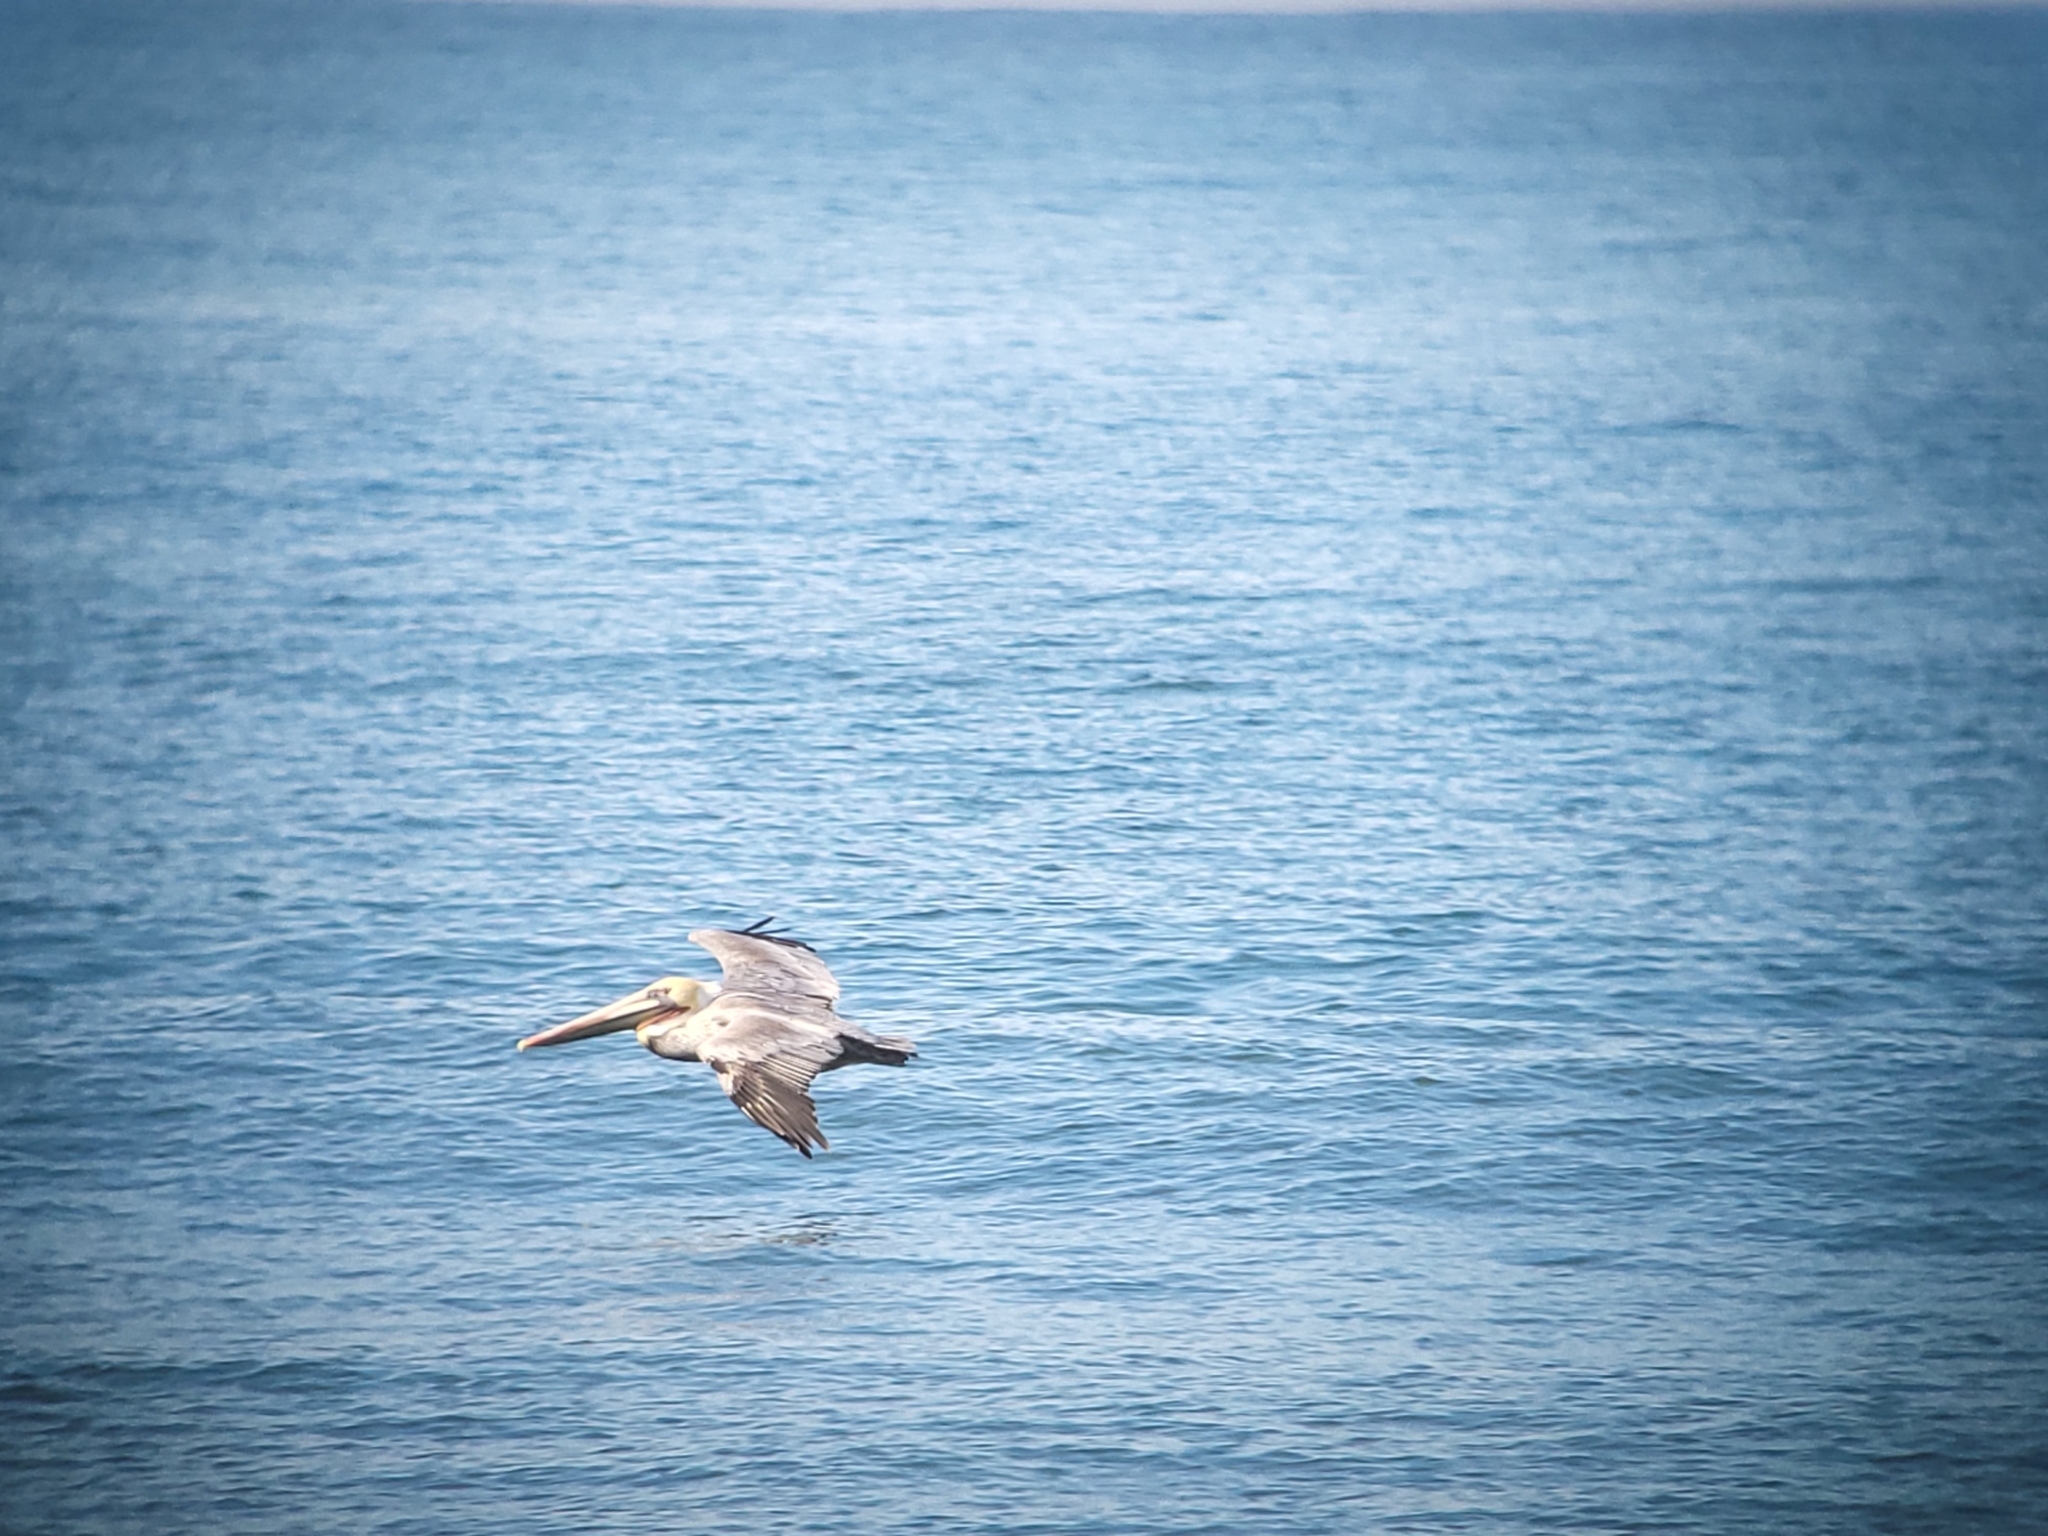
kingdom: Animalia
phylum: Chordata
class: Aves
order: Pelecaniformes
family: Pelecanidae
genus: Pelecanus
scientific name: Pelecanus occidentalis
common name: Brown pelican
